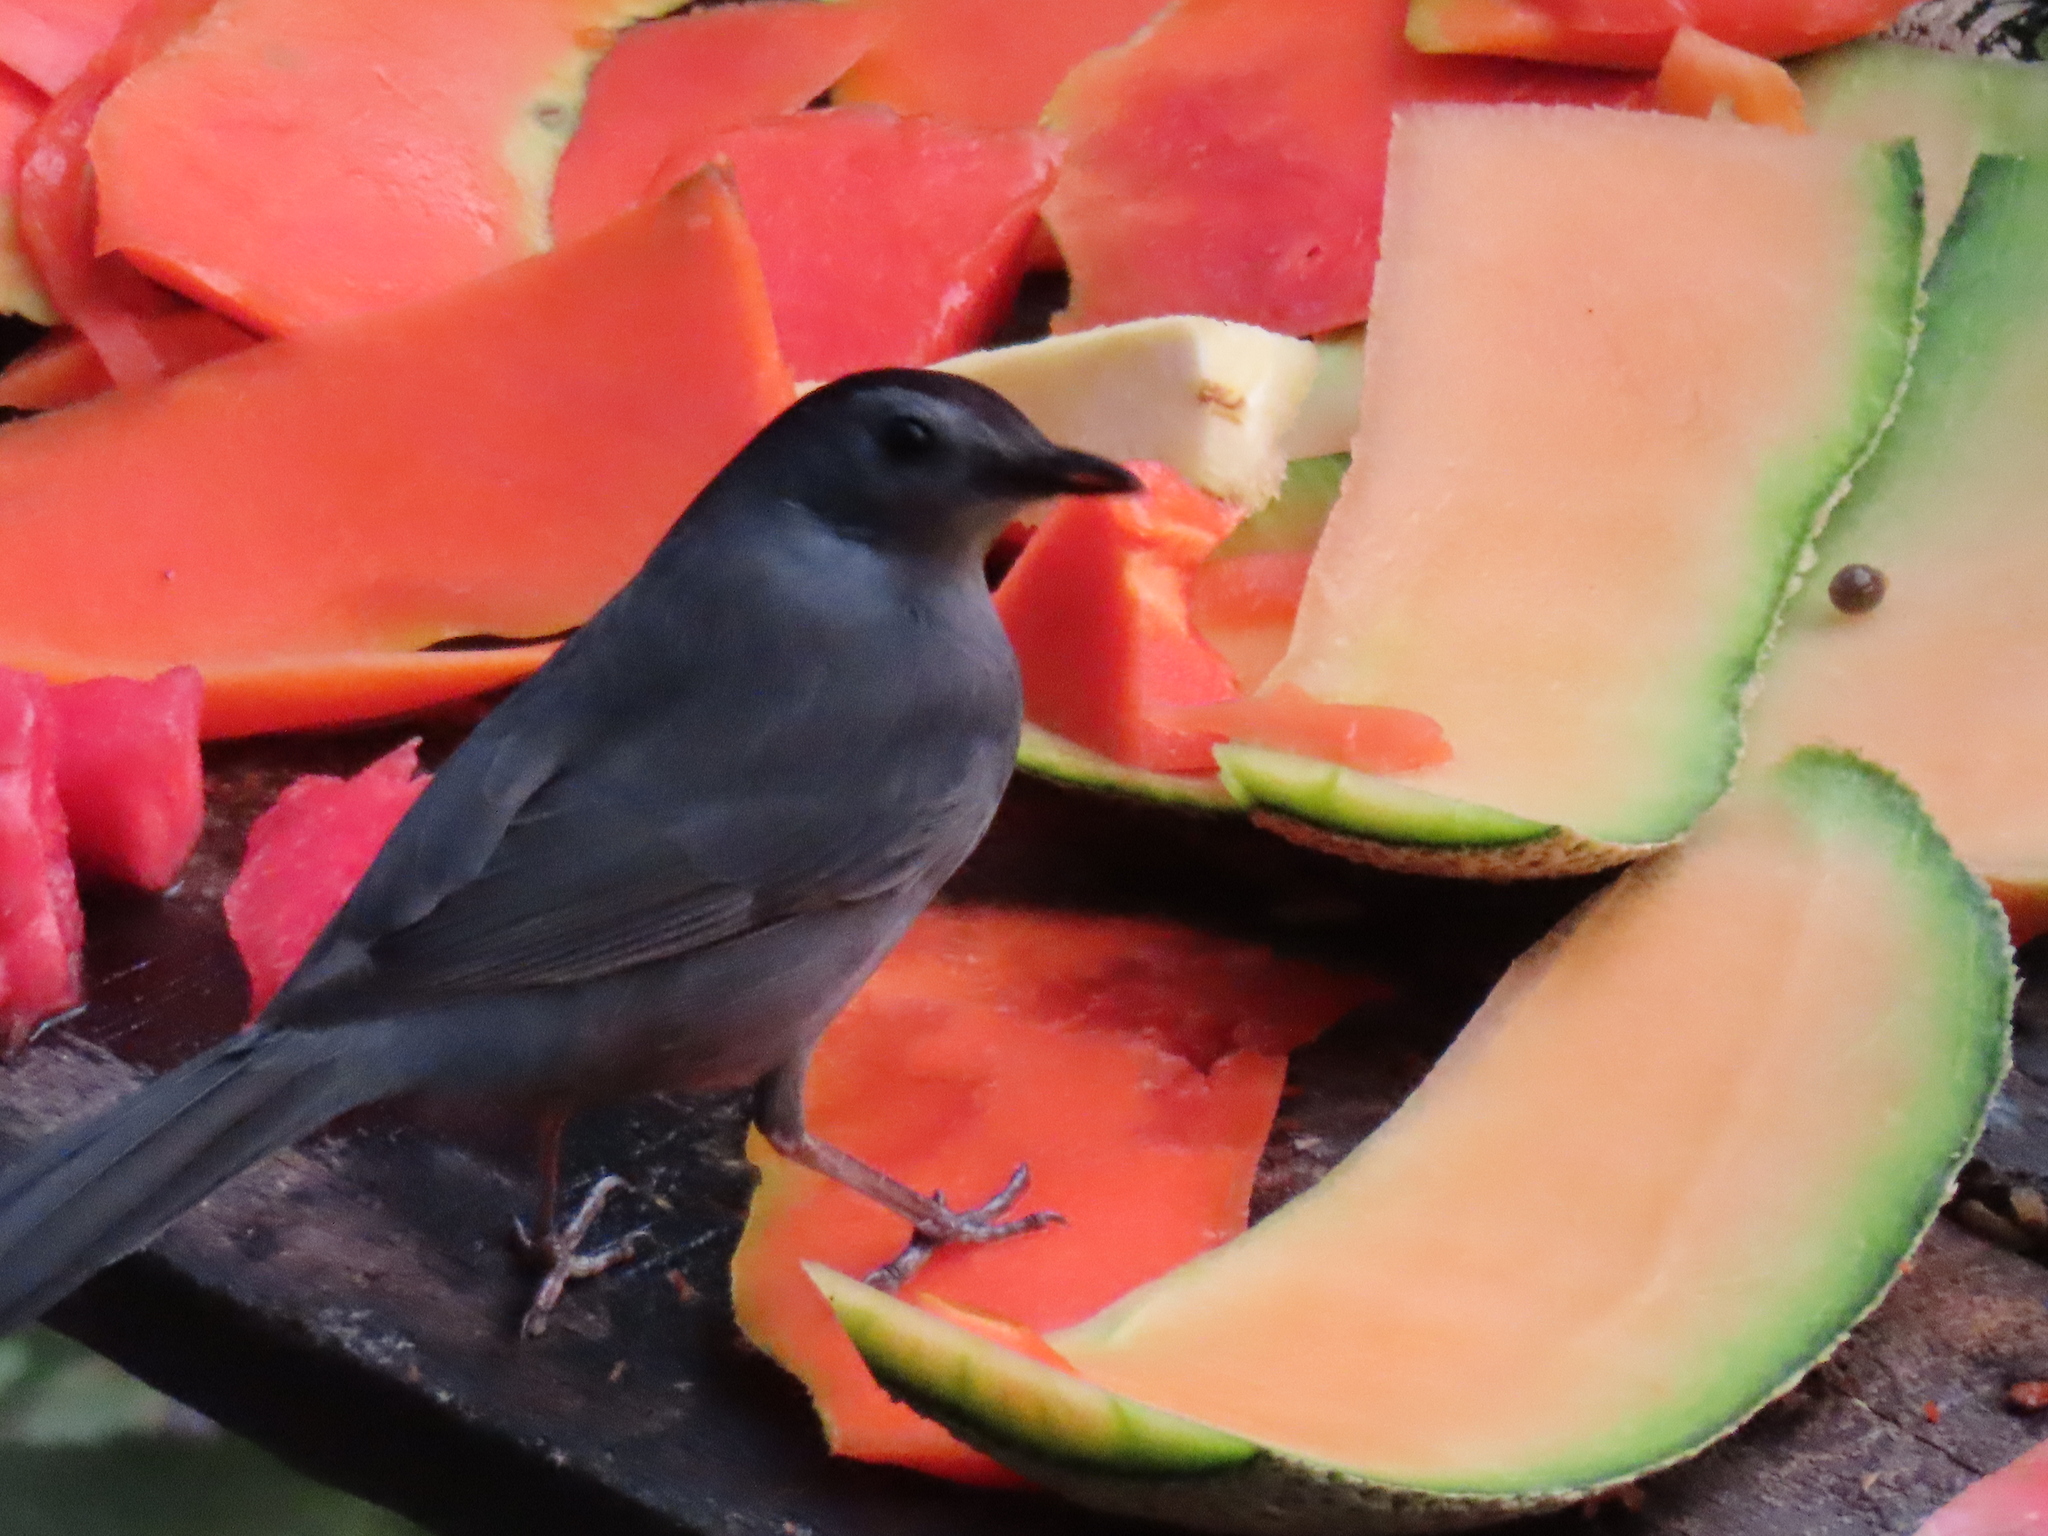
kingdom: Animalia
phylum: Chordata
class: Aves
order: Passeriformes
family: Mimidae
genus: Dumetella
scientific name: Dumetella carolinensis
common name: Gray catbird
